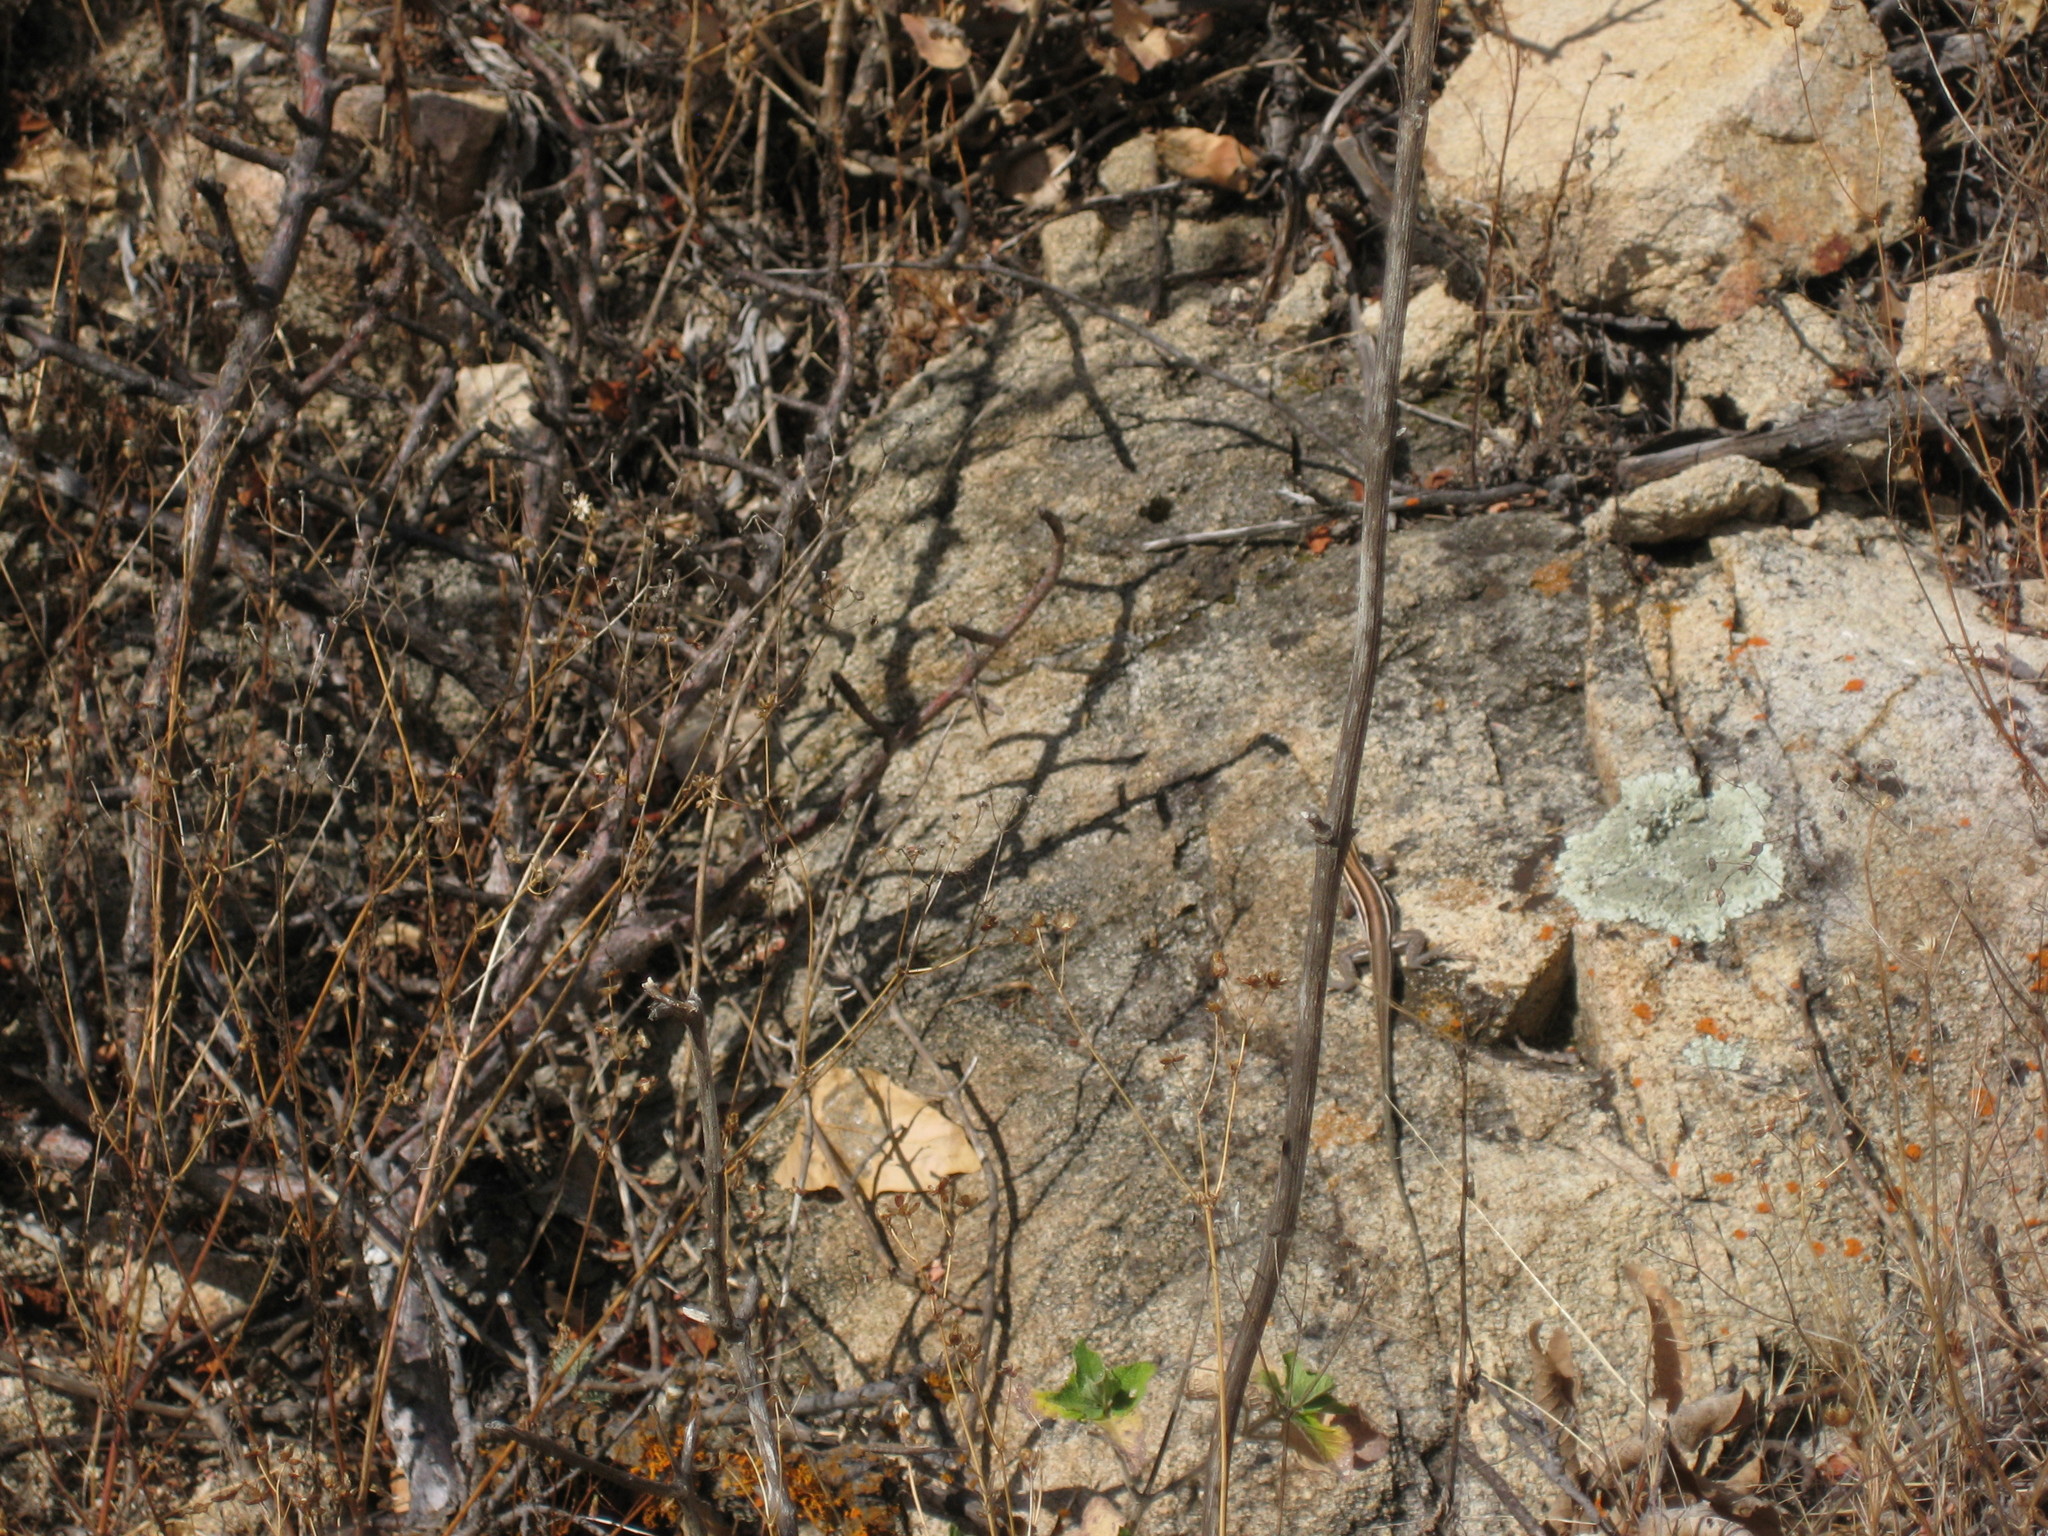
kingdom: Animalia
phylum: Chordata
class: Squamata
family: Teiidae
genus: Aspidoscelis
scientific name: Aspidoscelis hyperythrus
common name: Orange-throated race-runner
